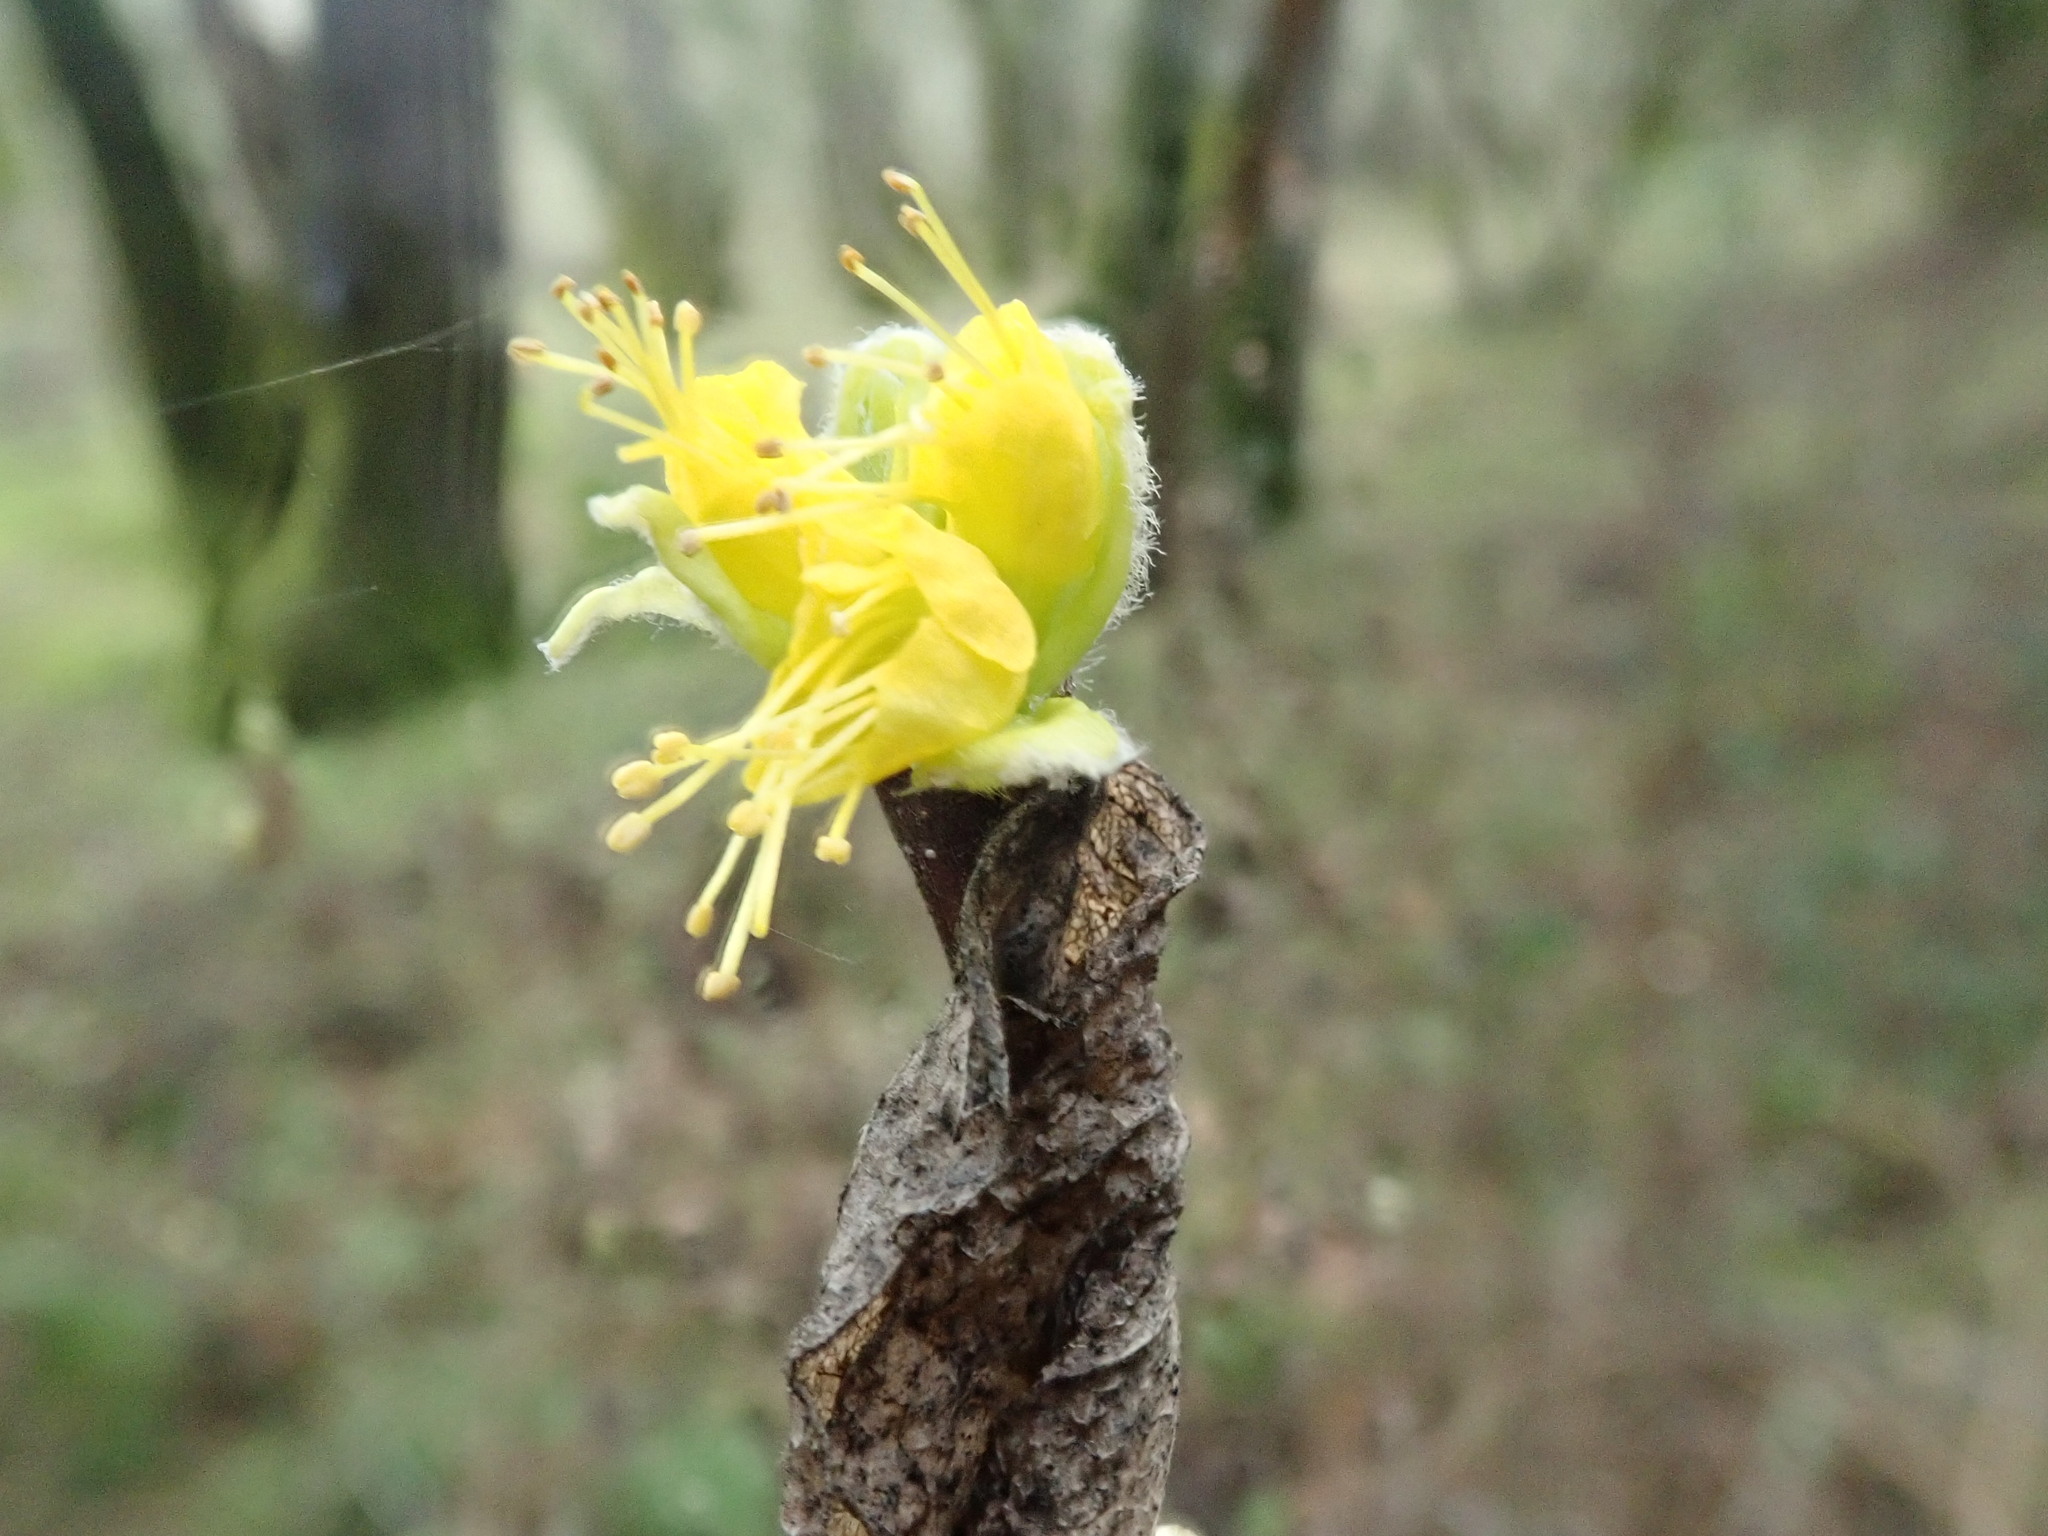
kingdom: Plantae
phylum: Tracheophyta
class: Magnoliopsida
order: Malvales
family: Thymelaeaceae
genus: Dirca
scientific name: Dirca occidentalis
